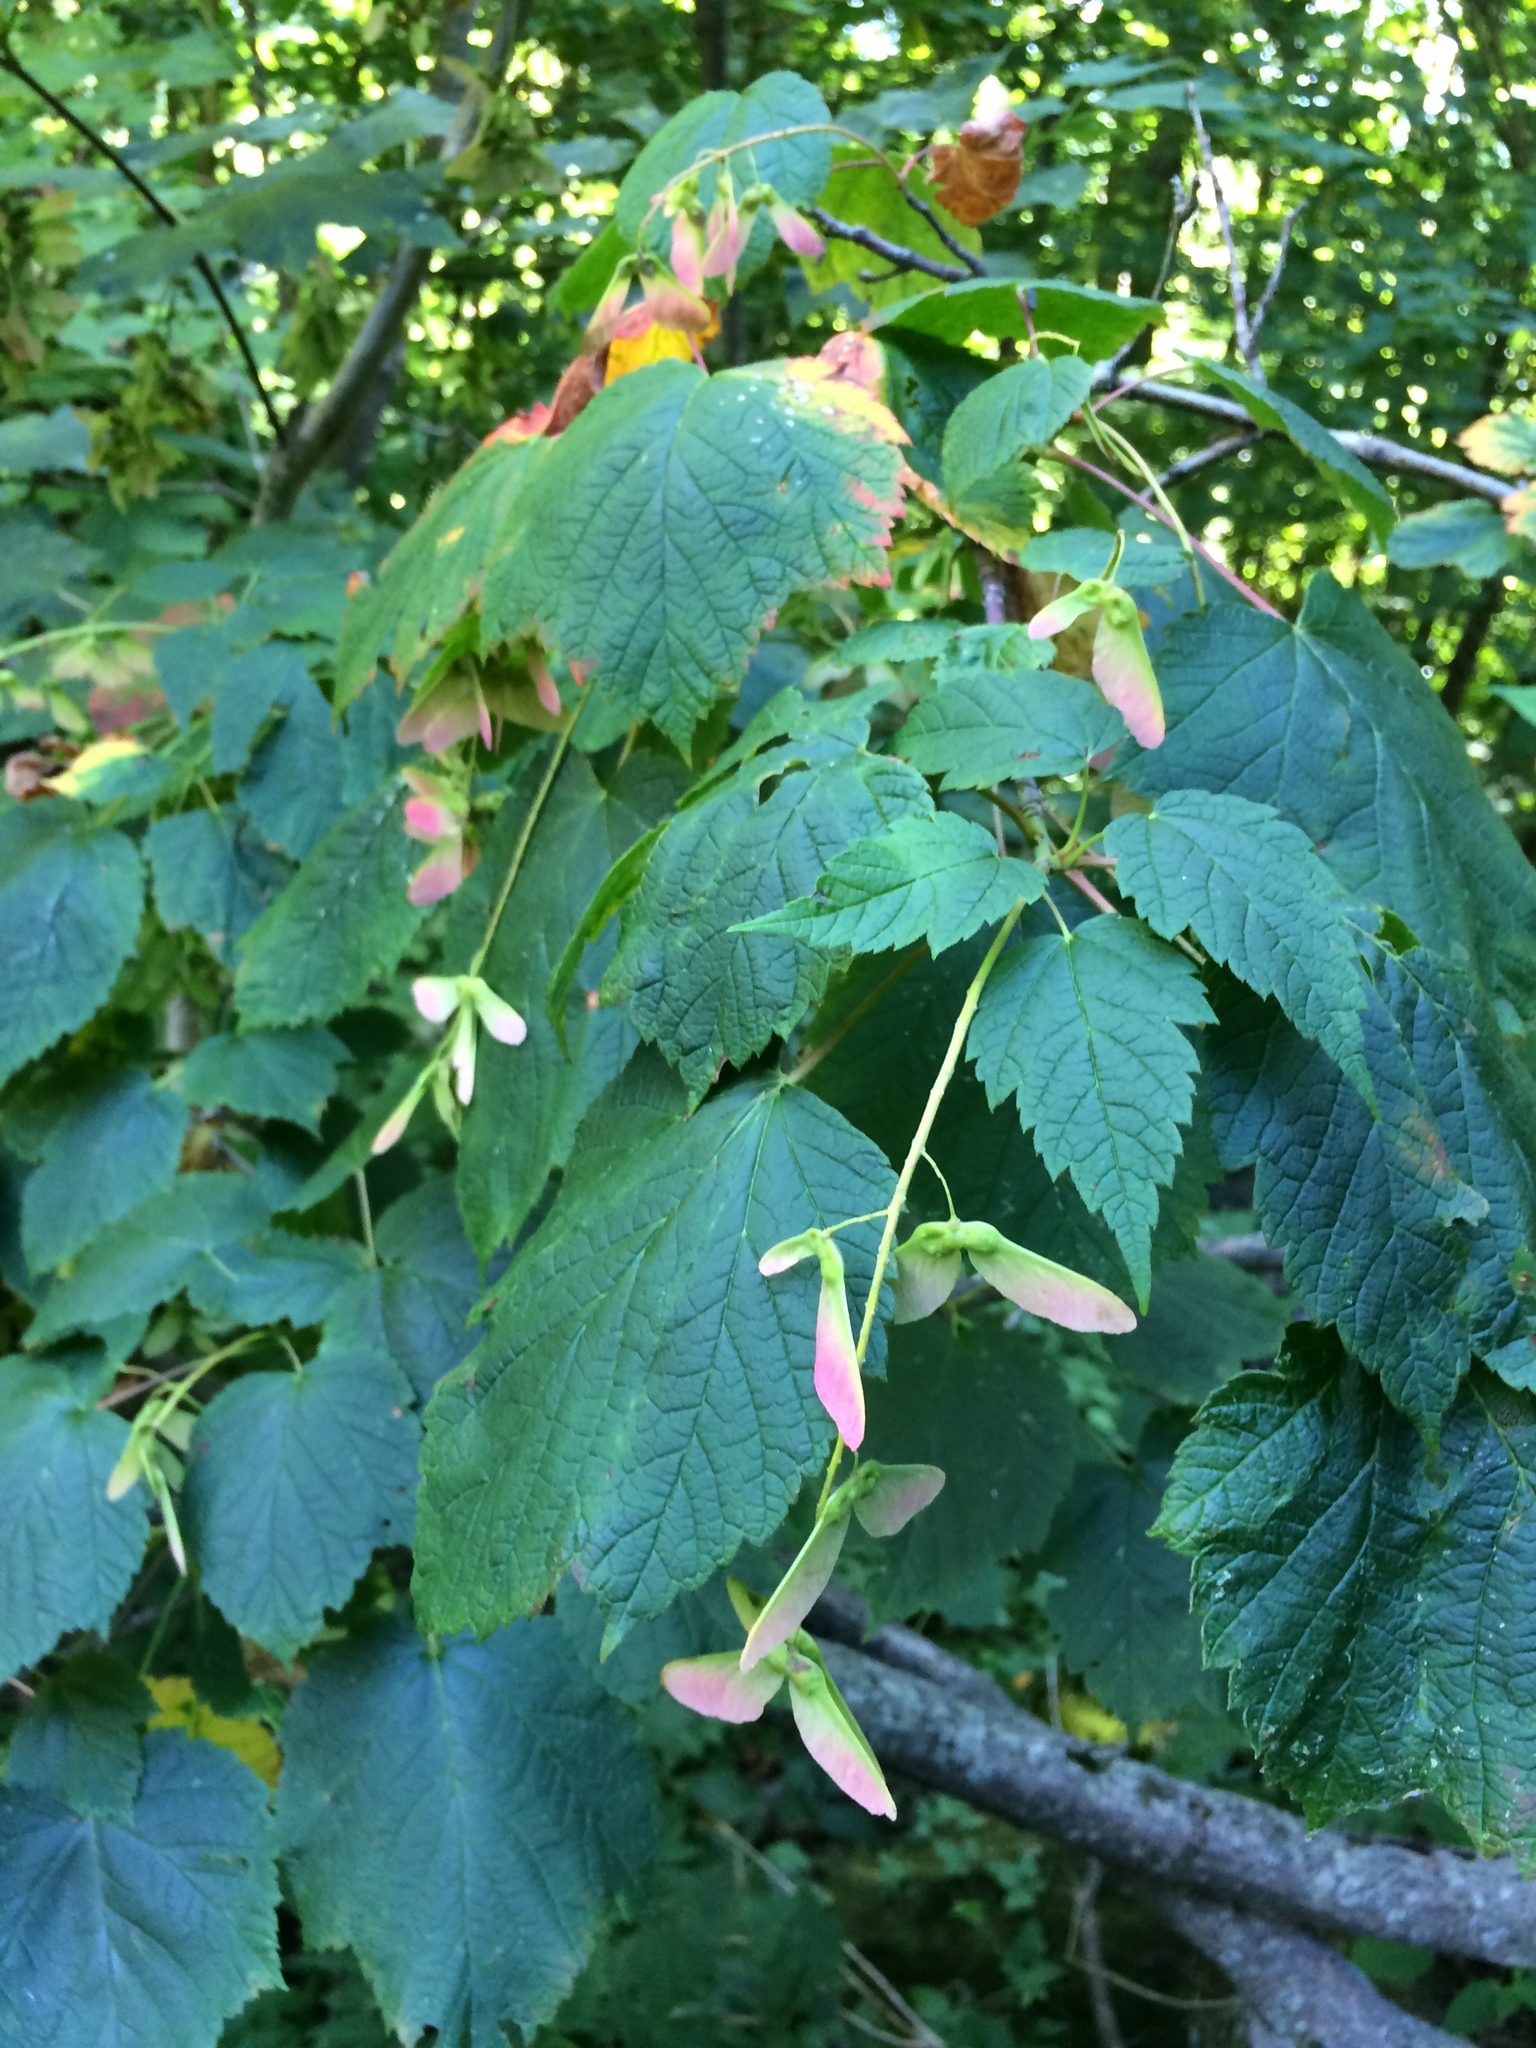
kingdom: Plantae
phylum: Tracheophyta
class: Magnoliopsida
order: Sapindales
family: Sapindaceae
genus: Acer
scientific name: Acer spicatum
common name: Mountain maple
